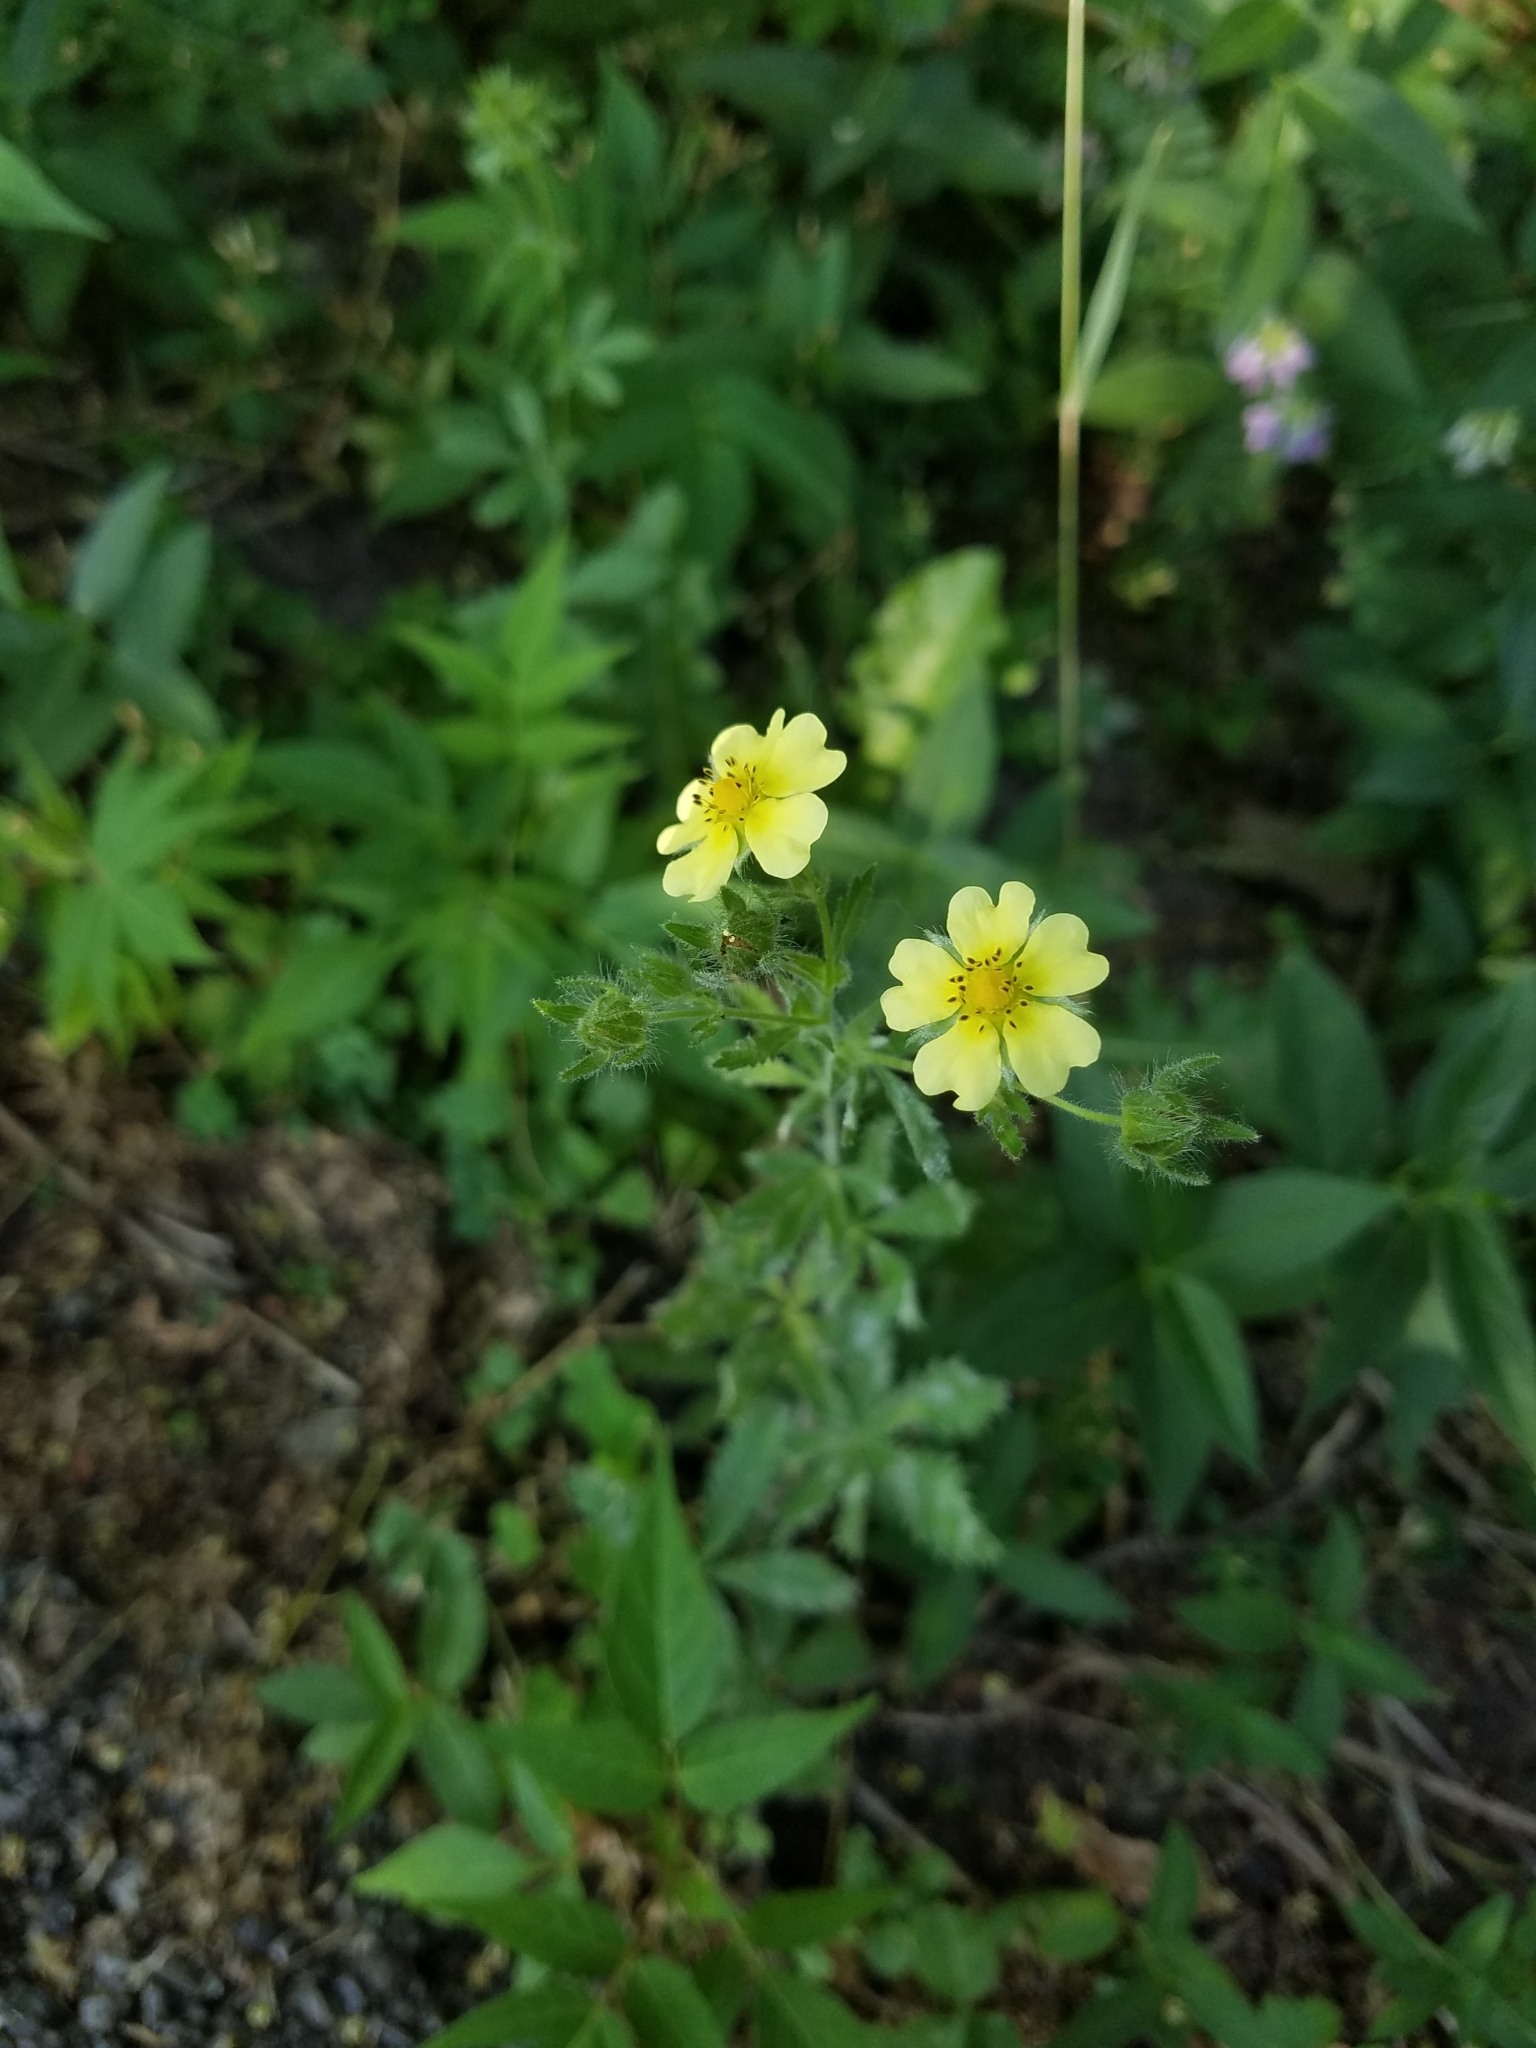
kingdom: Plantae
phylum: Tracheophyta
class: Magnoliopsida
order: Rosales
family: Rosaceae
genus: Potentilla
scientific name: Potentilla recta
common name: Sulphur cinquefoil
